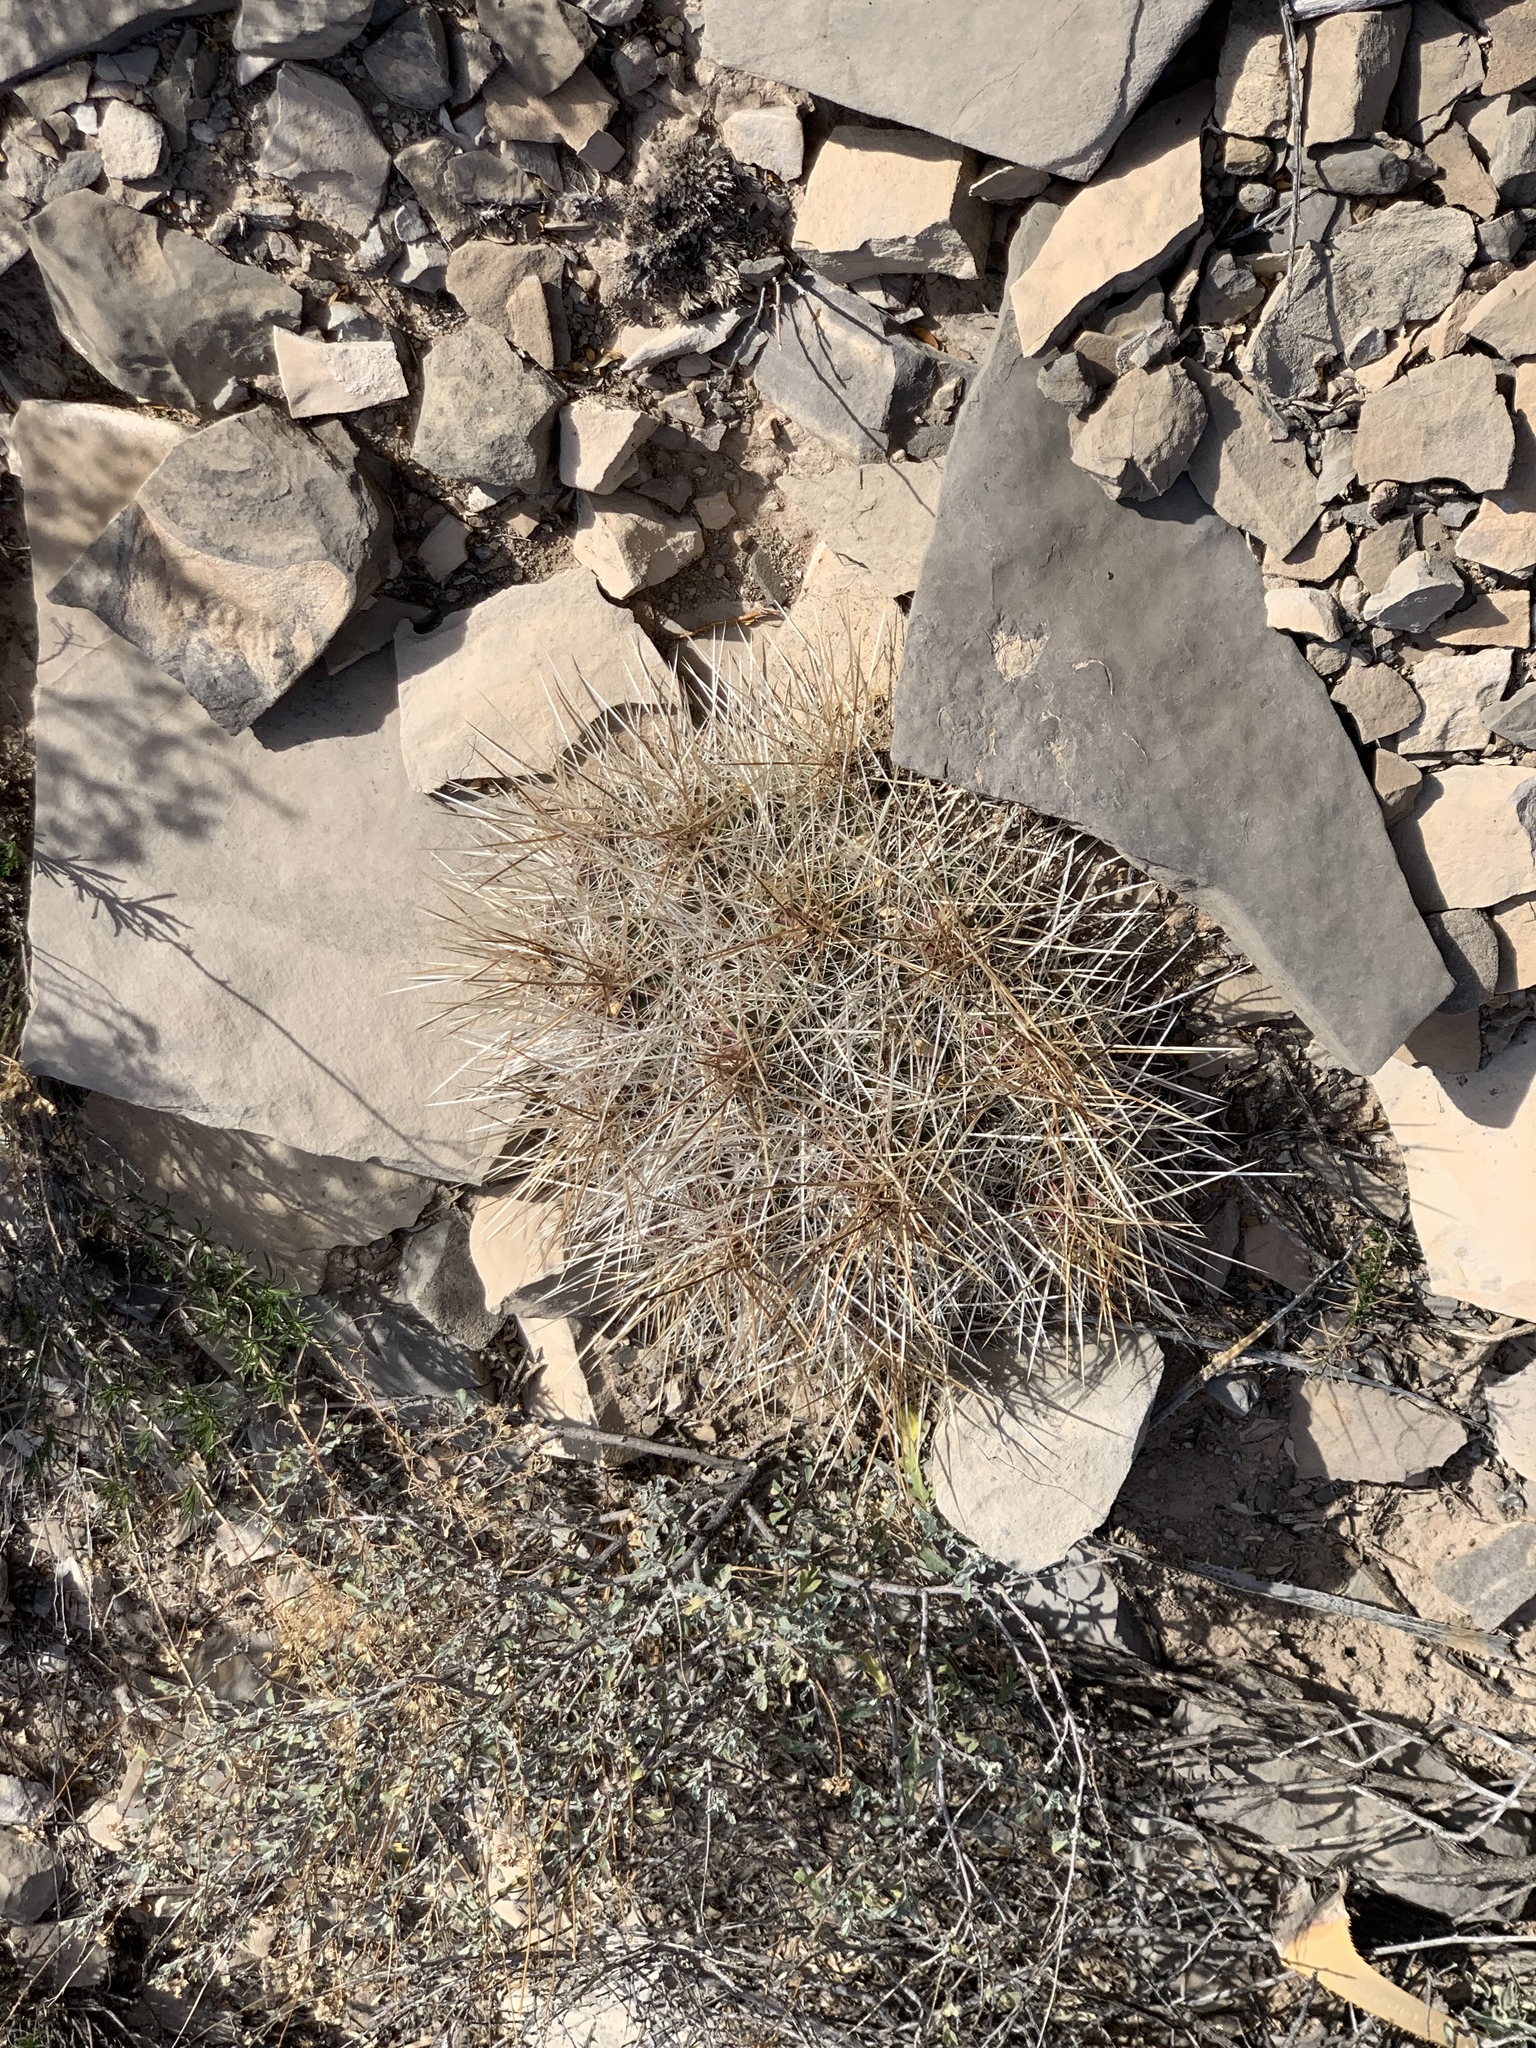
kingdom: Plantae
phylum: Tracheophyta
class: Magnoliopsida
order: Caryophyllales
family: Cactaceae
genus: Echinocereus
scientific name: Echinocereus stramineus
